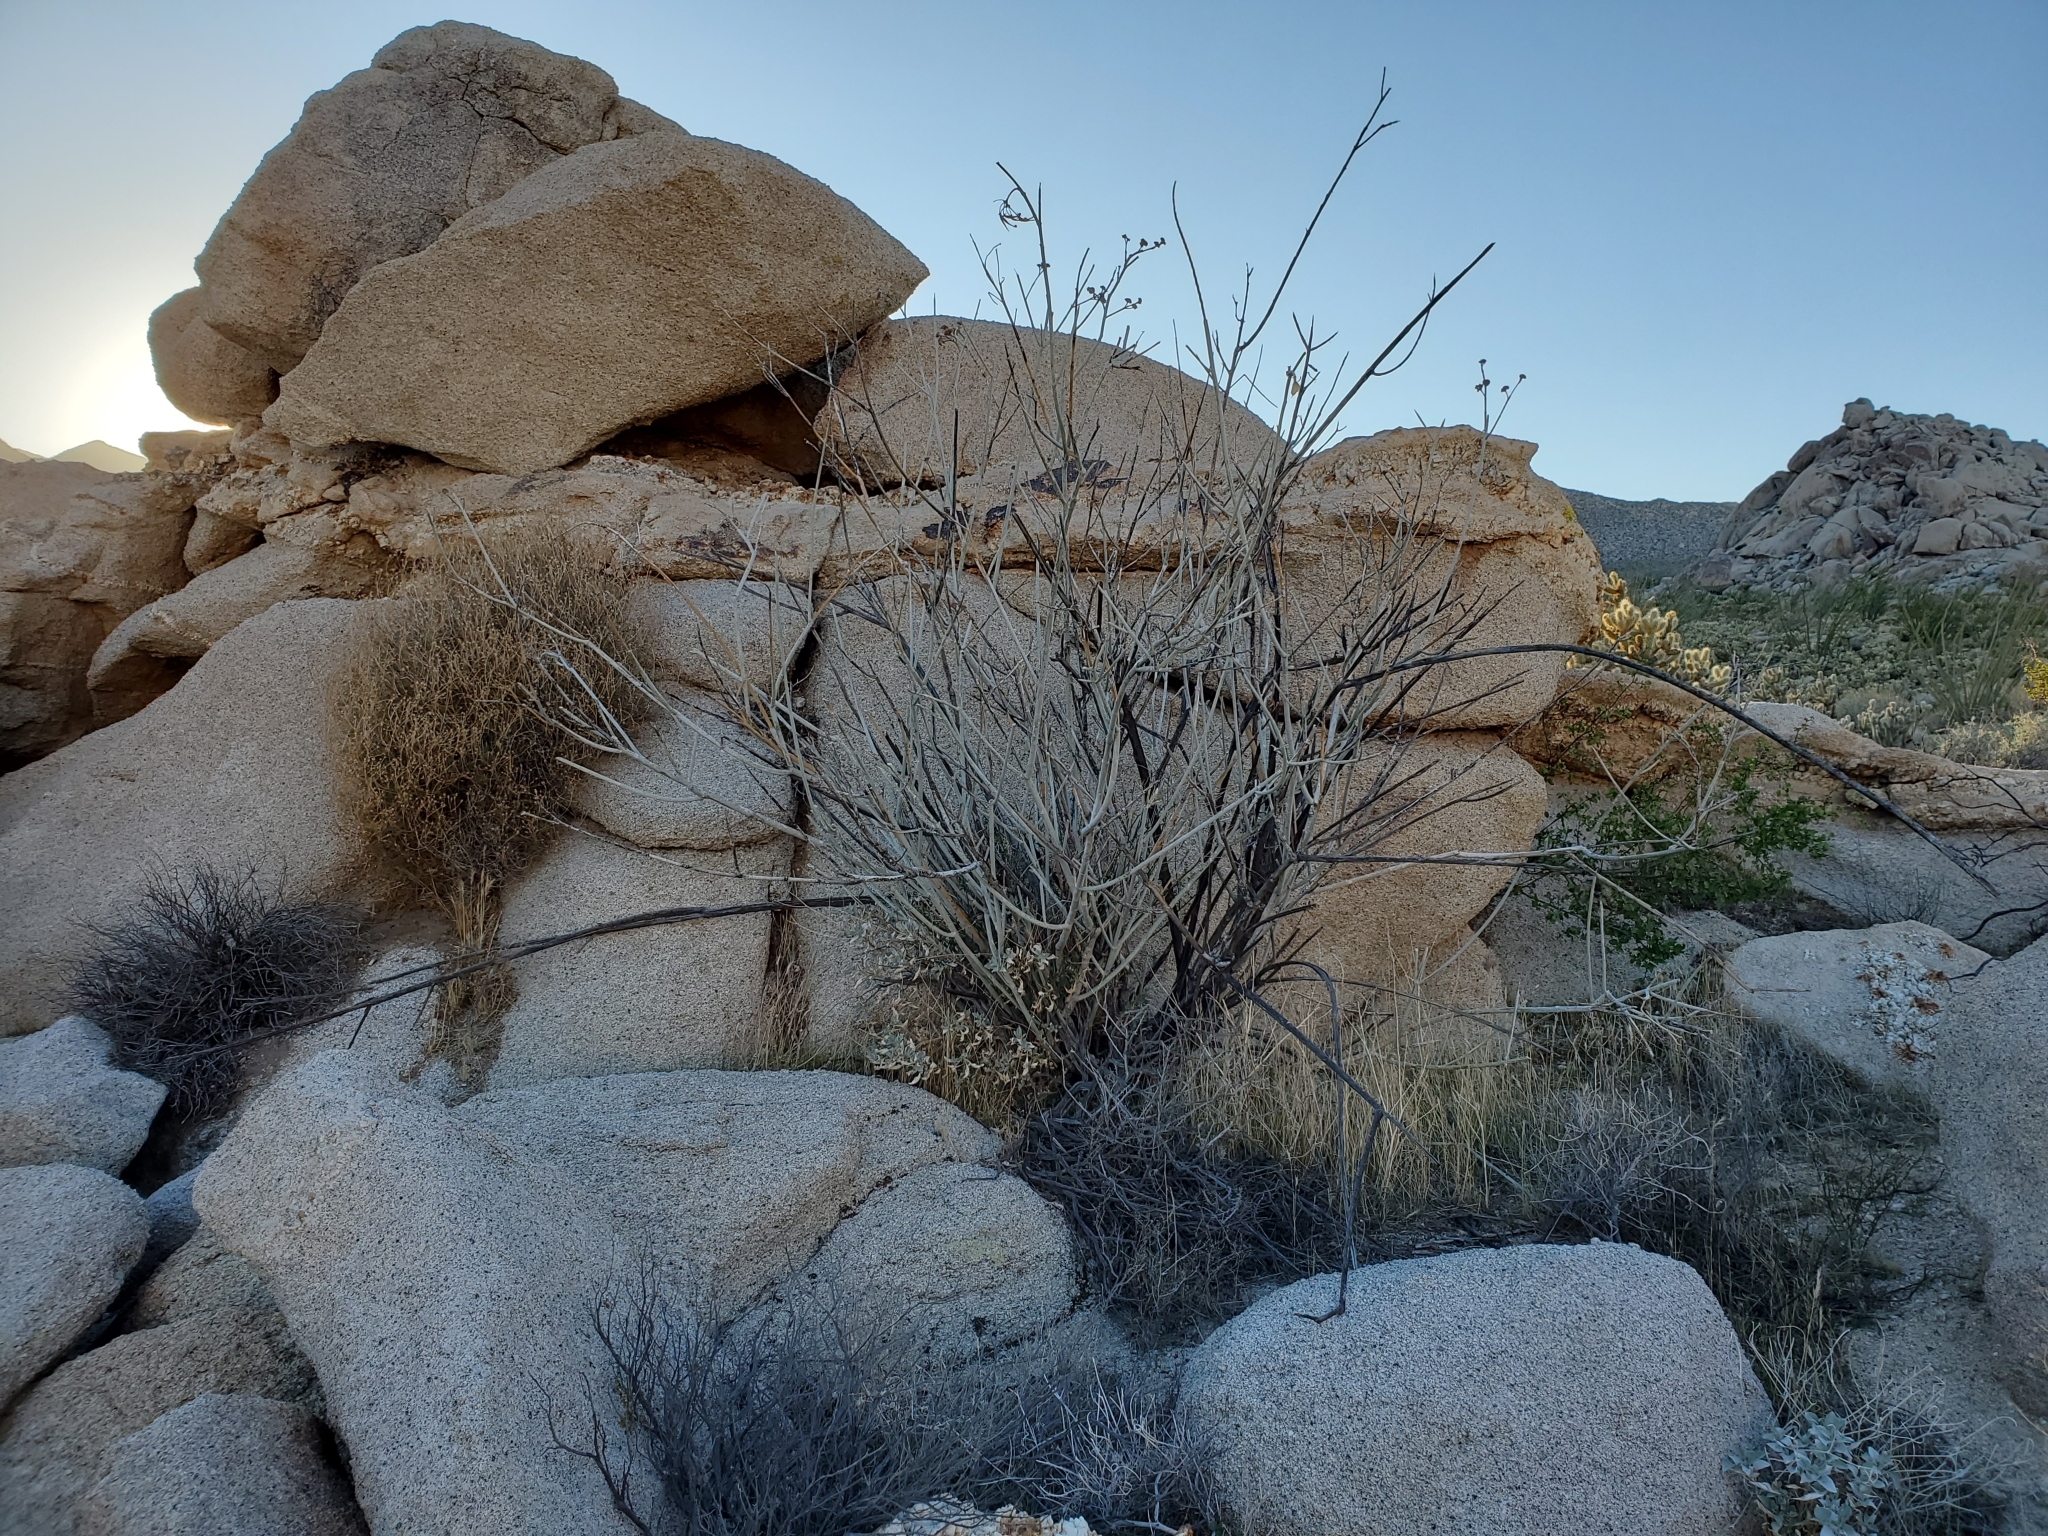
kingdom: Plantae
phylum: Tracheophyta
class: Magnoliopsida
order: Gentianales
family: Apocynaceae
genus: Asclepias
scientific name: Asclepias albicans
